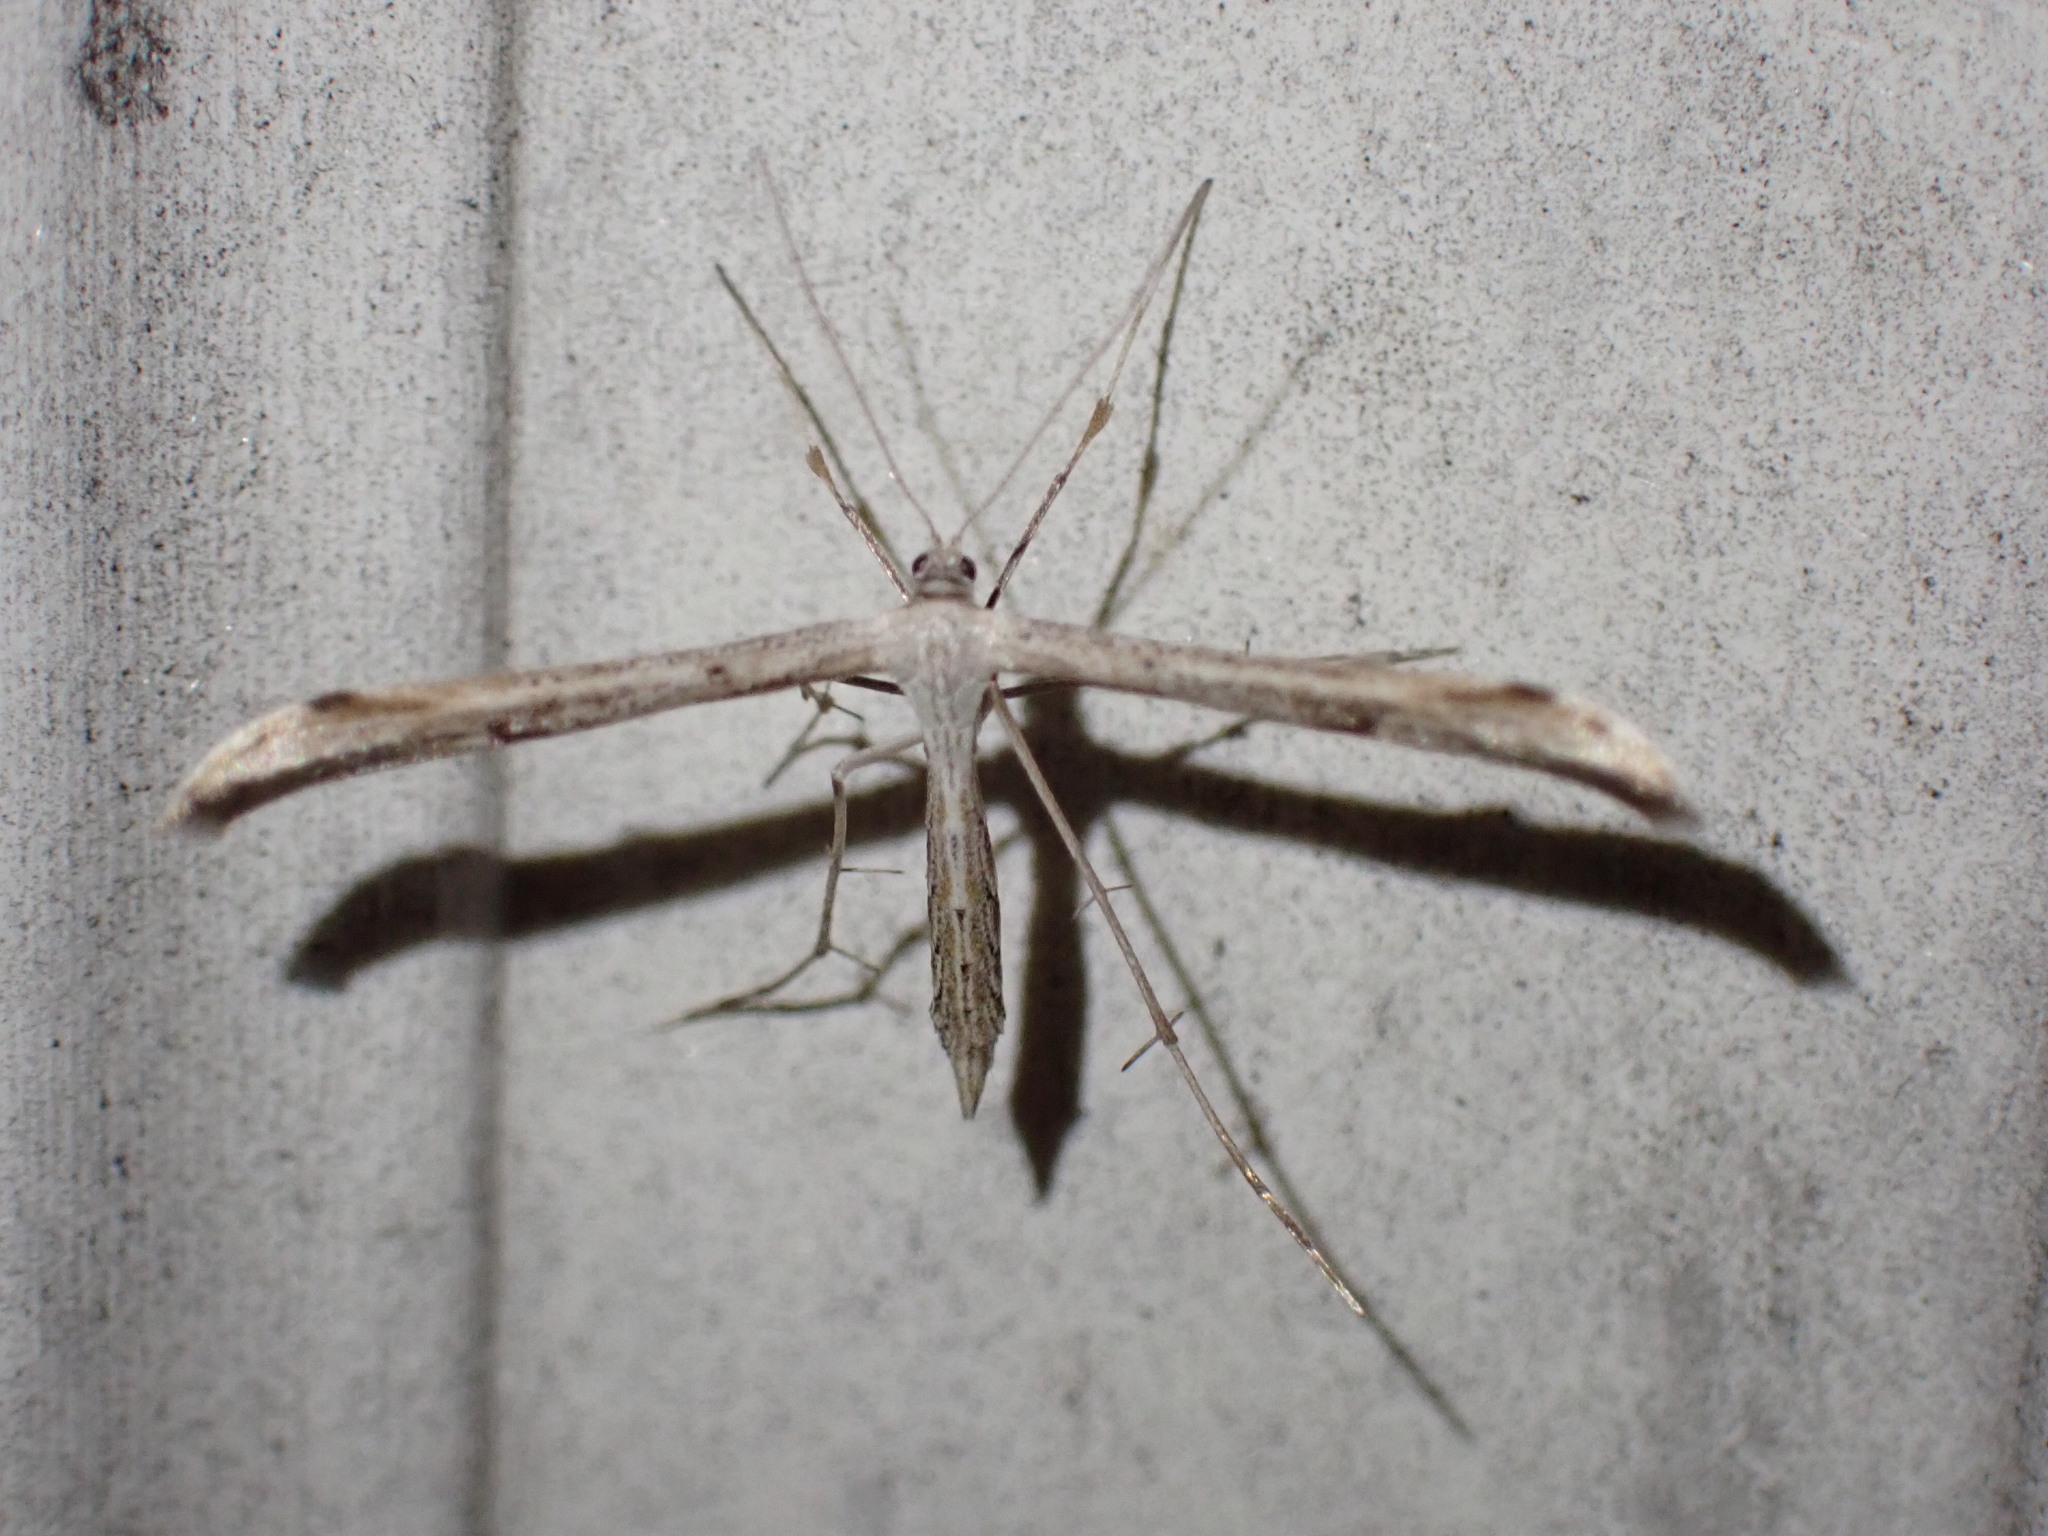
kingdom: Animalia
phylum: Arthropoda
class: Insecta
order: Lepidoptera
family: Pterophoridae
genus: Emmelina
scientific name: Emmelina monodactyla
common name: Common plume
